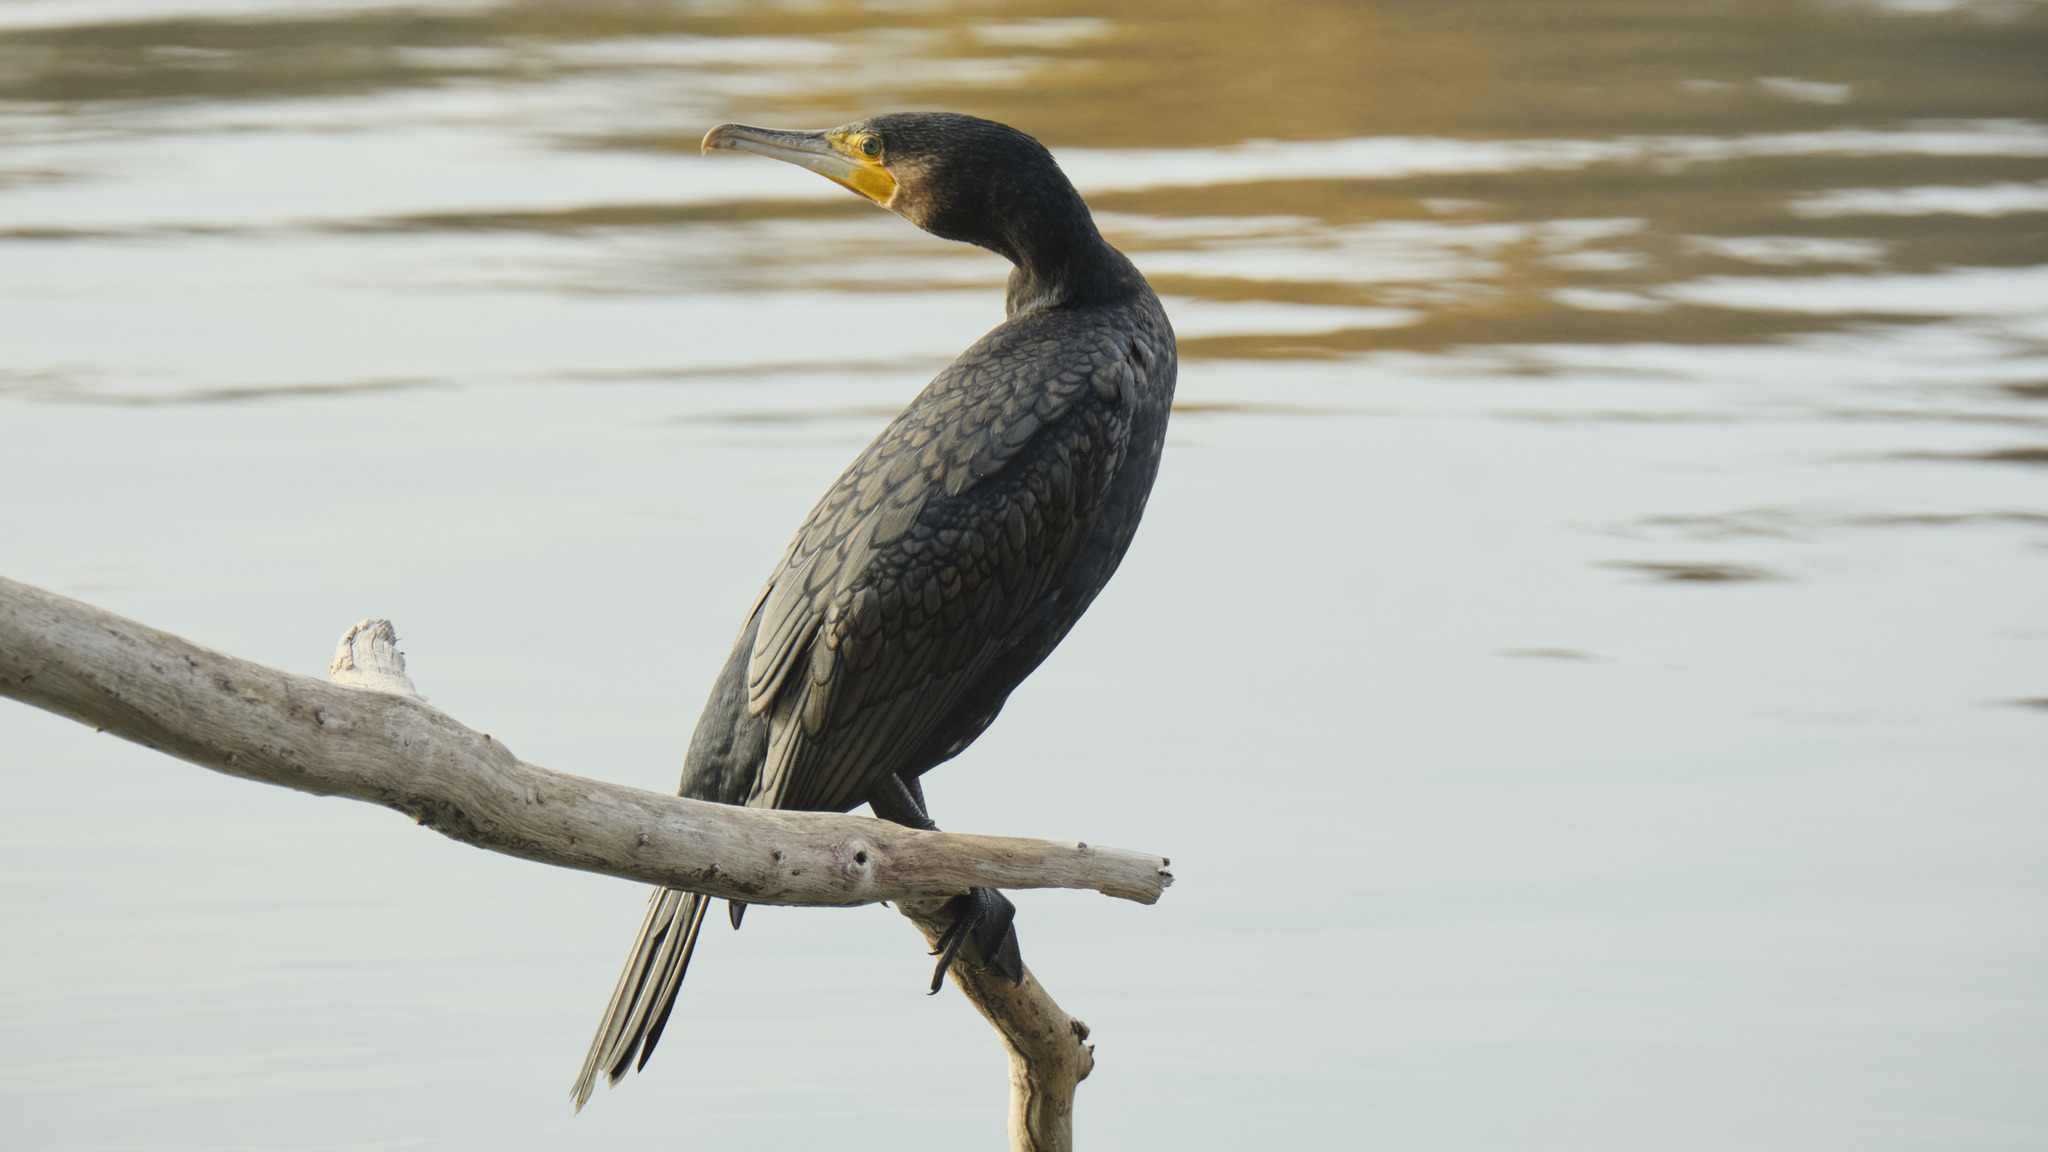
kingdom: Animalia
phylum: Chordata
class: Aves
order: Suliformes
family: Phalacrocoracidae
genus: Phalacrocorax
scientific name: Phalacrocorax carbo
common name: Great cormorant
